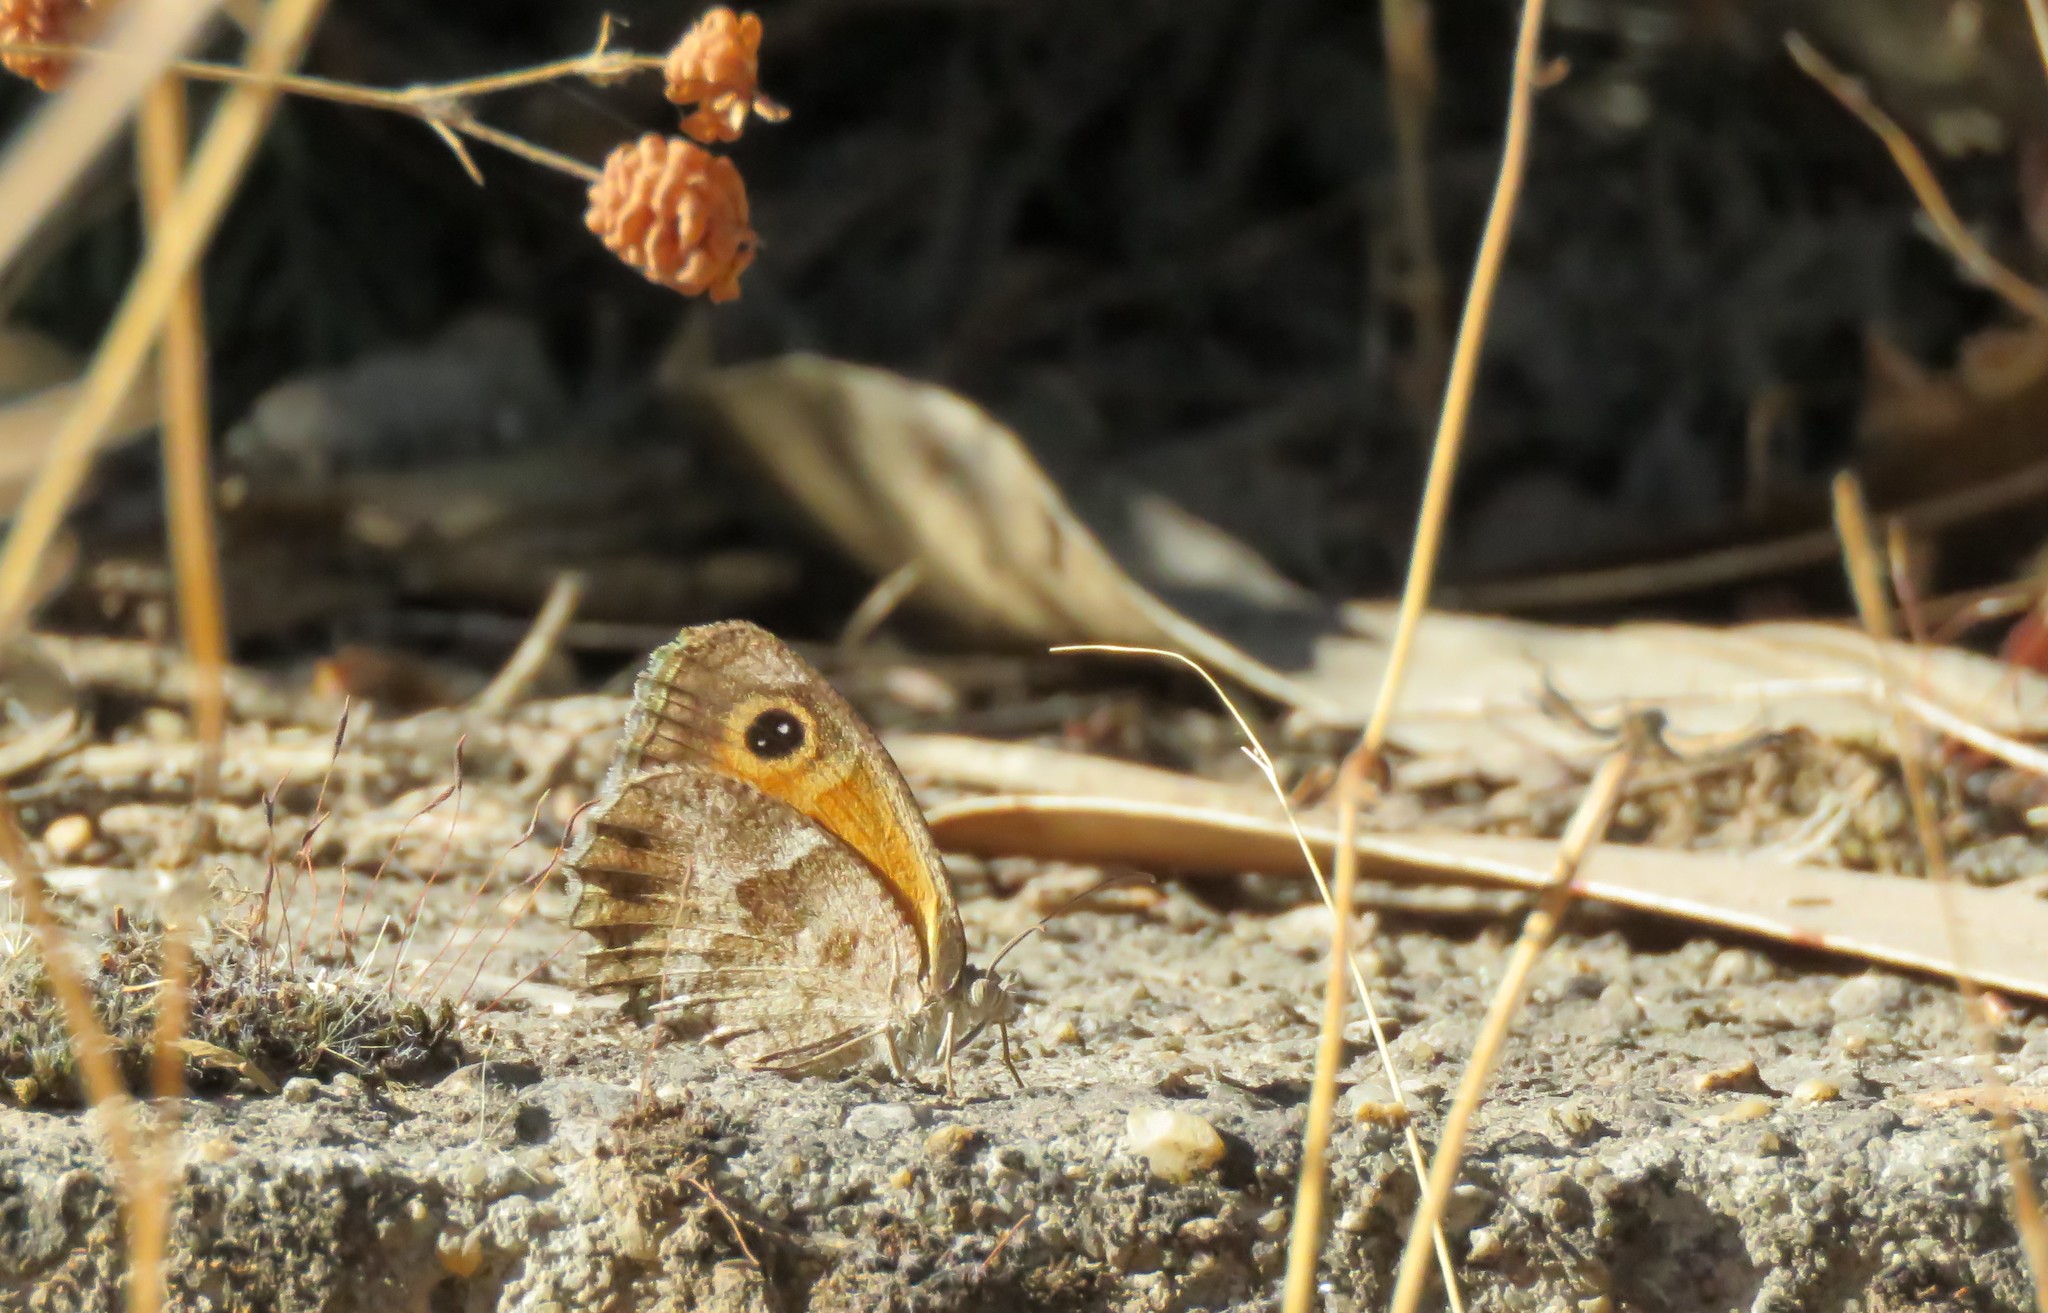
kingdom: Animalia
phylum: Arthropoda
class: Insecta
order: Lepidoptera
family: Nymphalidae
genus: Pyronia
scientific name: Pyronia cecilia
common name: Southern gatekeeper
